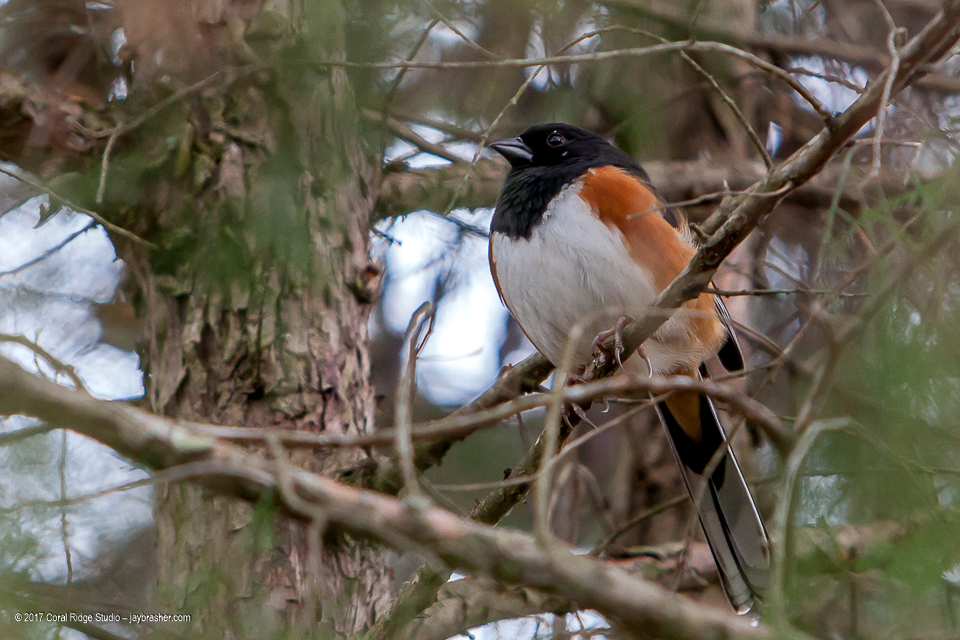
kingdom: Animalia
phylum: Chordata
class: Aves
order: Passeriformes
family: Passerellidae
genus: Pipilo
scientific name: Pipilo erythrophthalmus
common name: Eastern towhee
